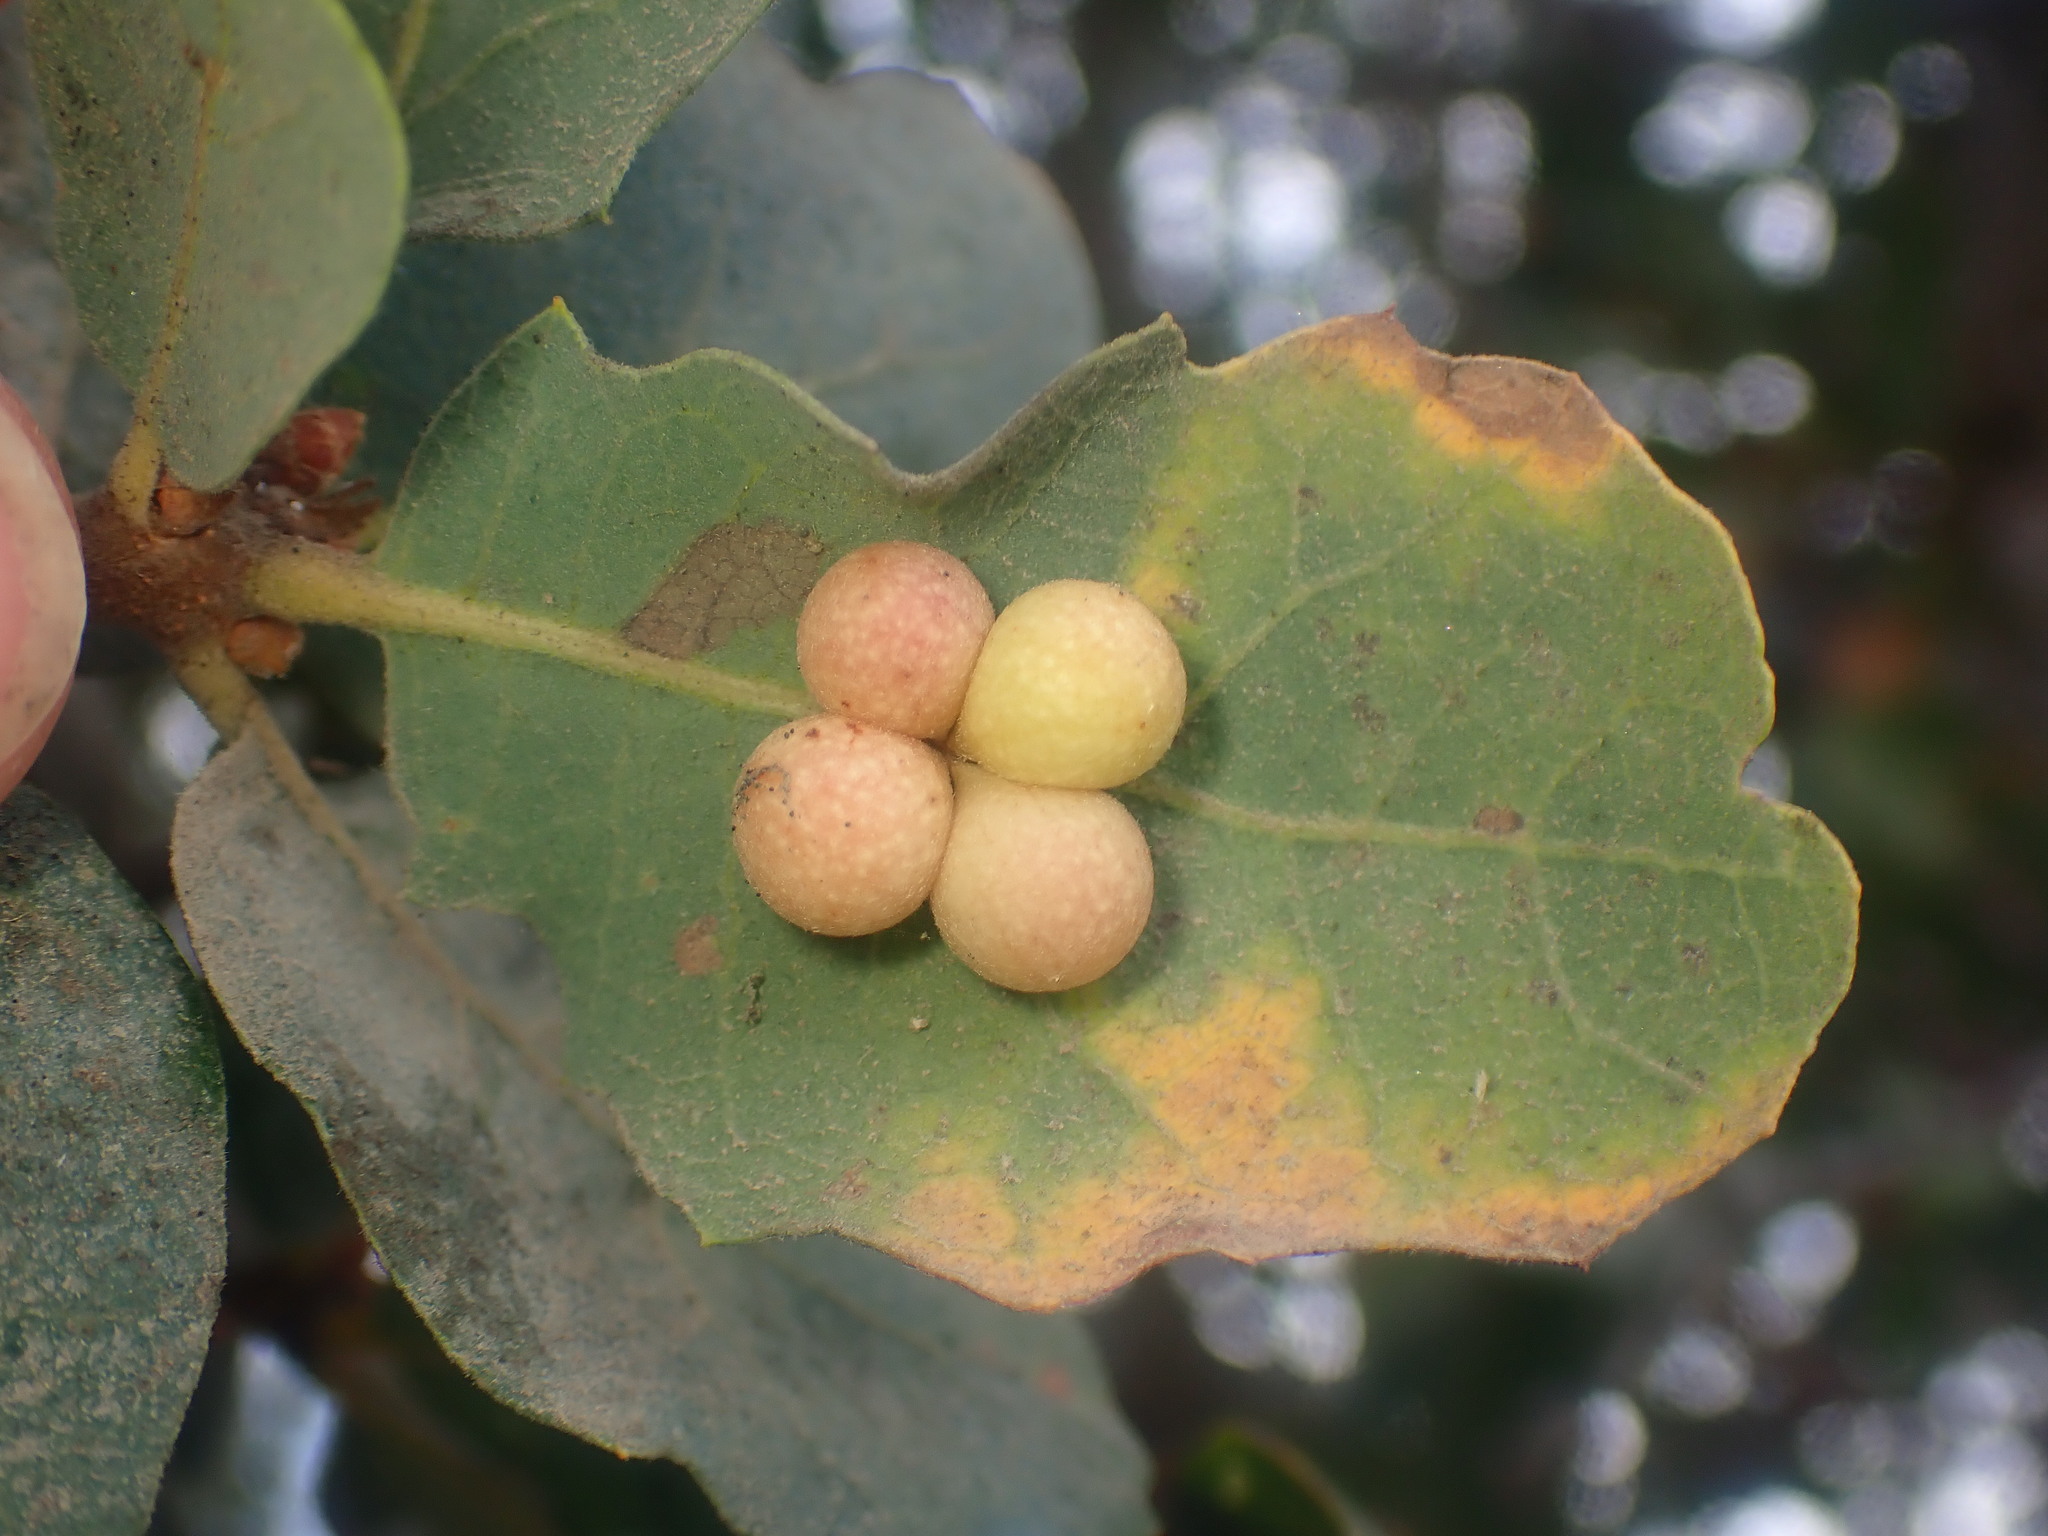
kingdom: Animalia
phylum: Arthropoda
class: Insecta
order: Hymenoptera
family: Cynipidae
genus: Andricus
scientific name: Andricus
